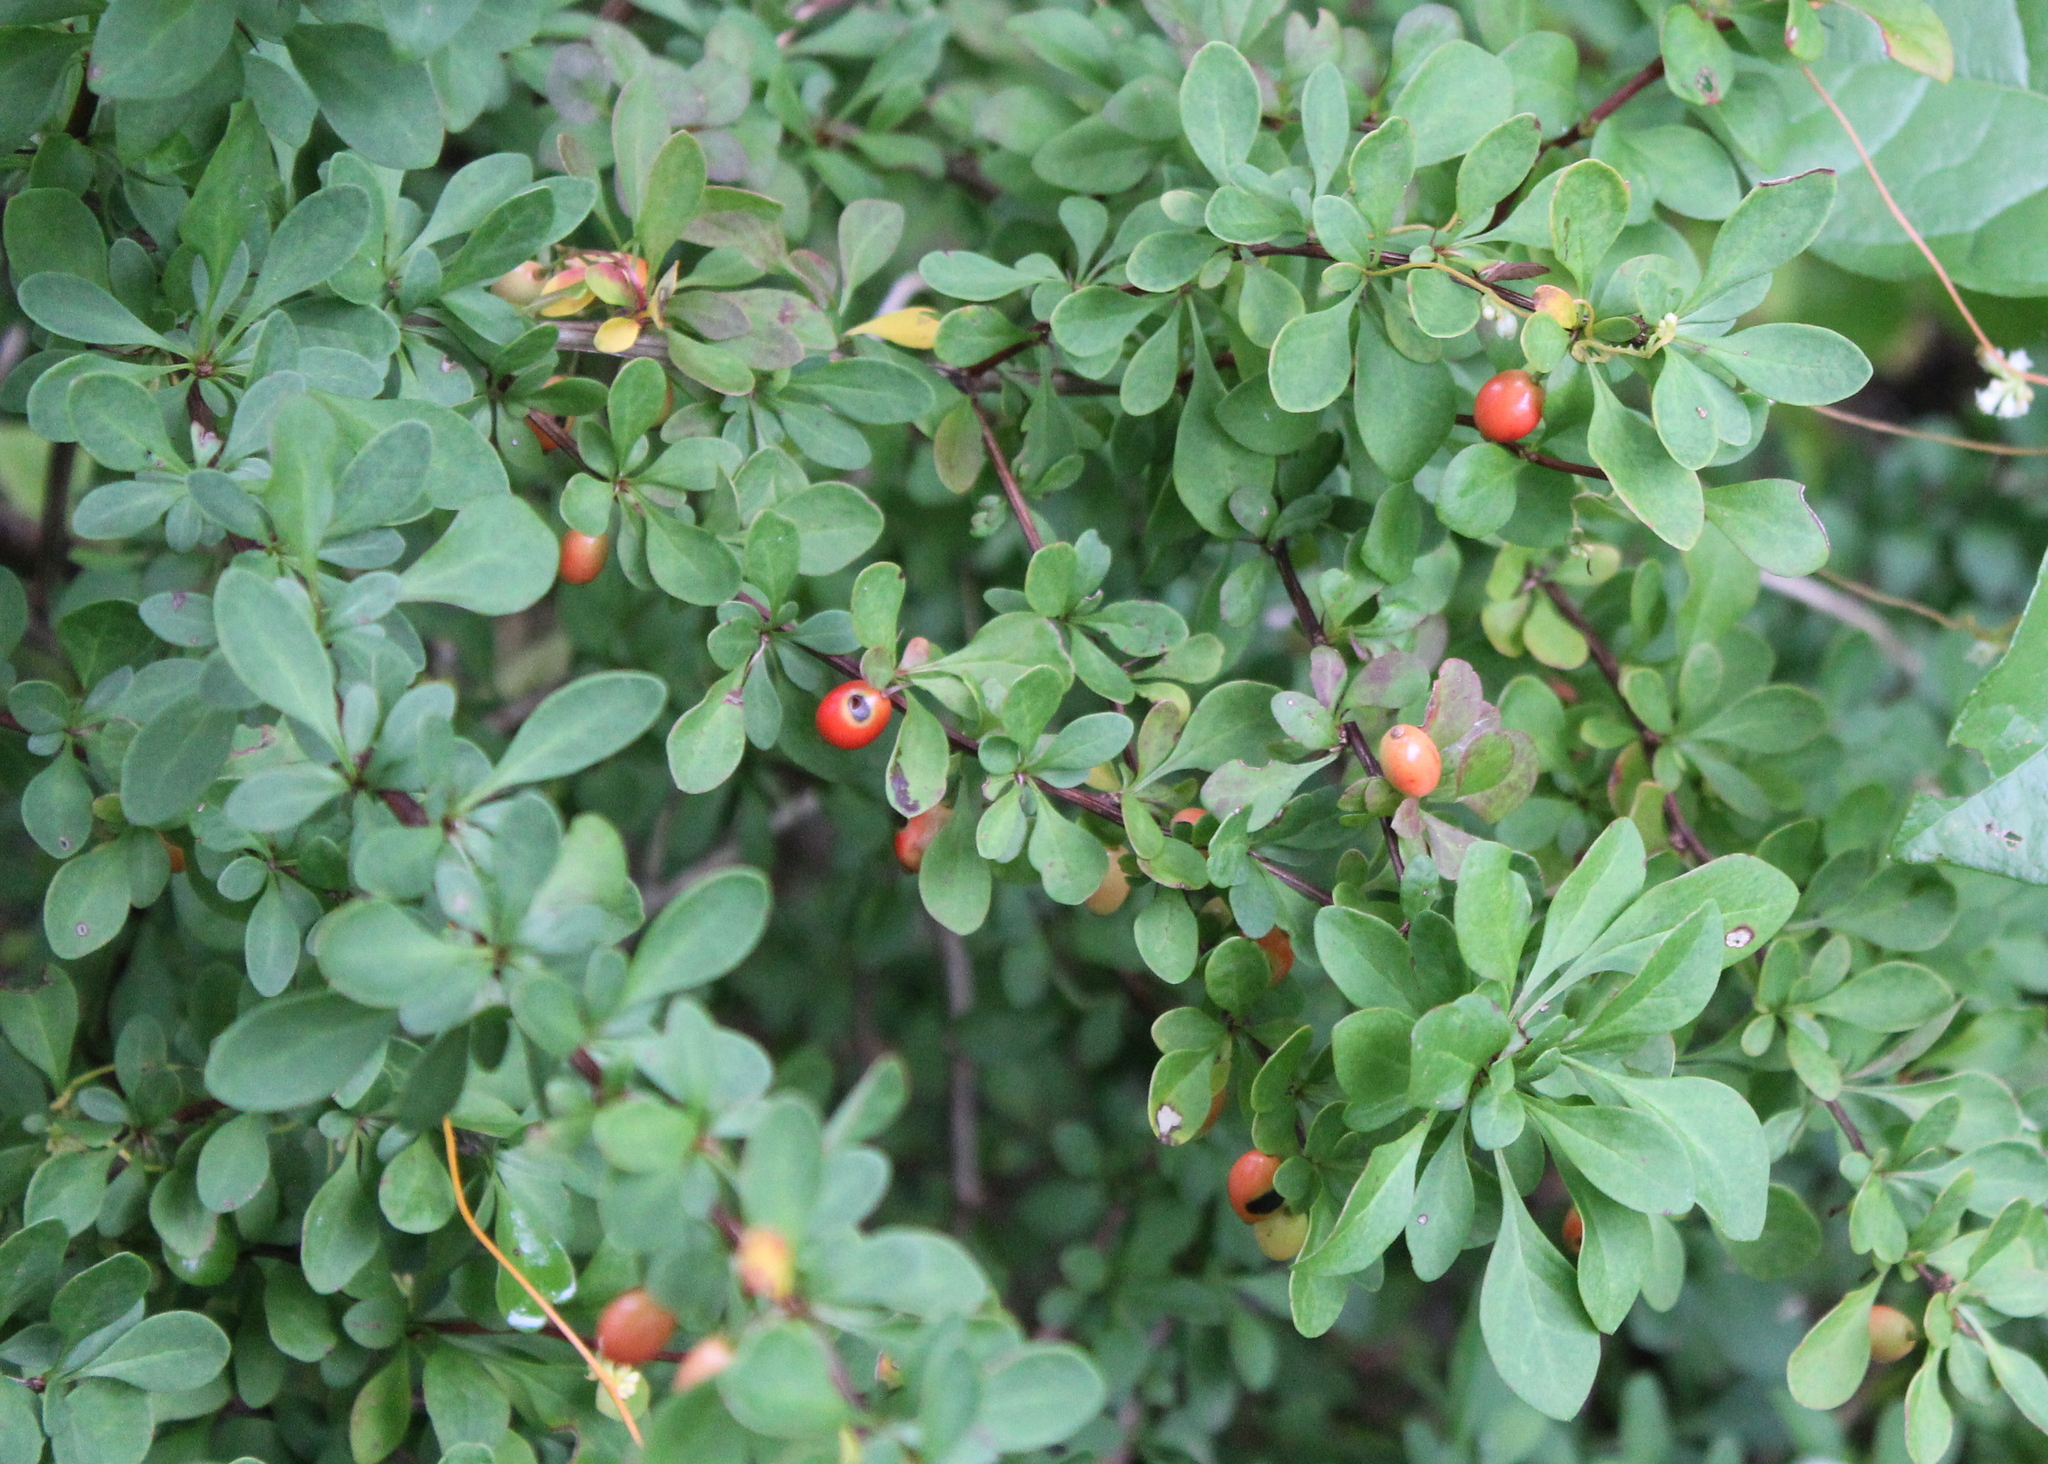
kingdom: Plantae
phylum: Tracheophyta
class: Magnoliopsida
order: Ranunculales
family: Berberidaceae
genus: Berberis
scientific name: Berberis thunbergii
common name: Japanese barberry
